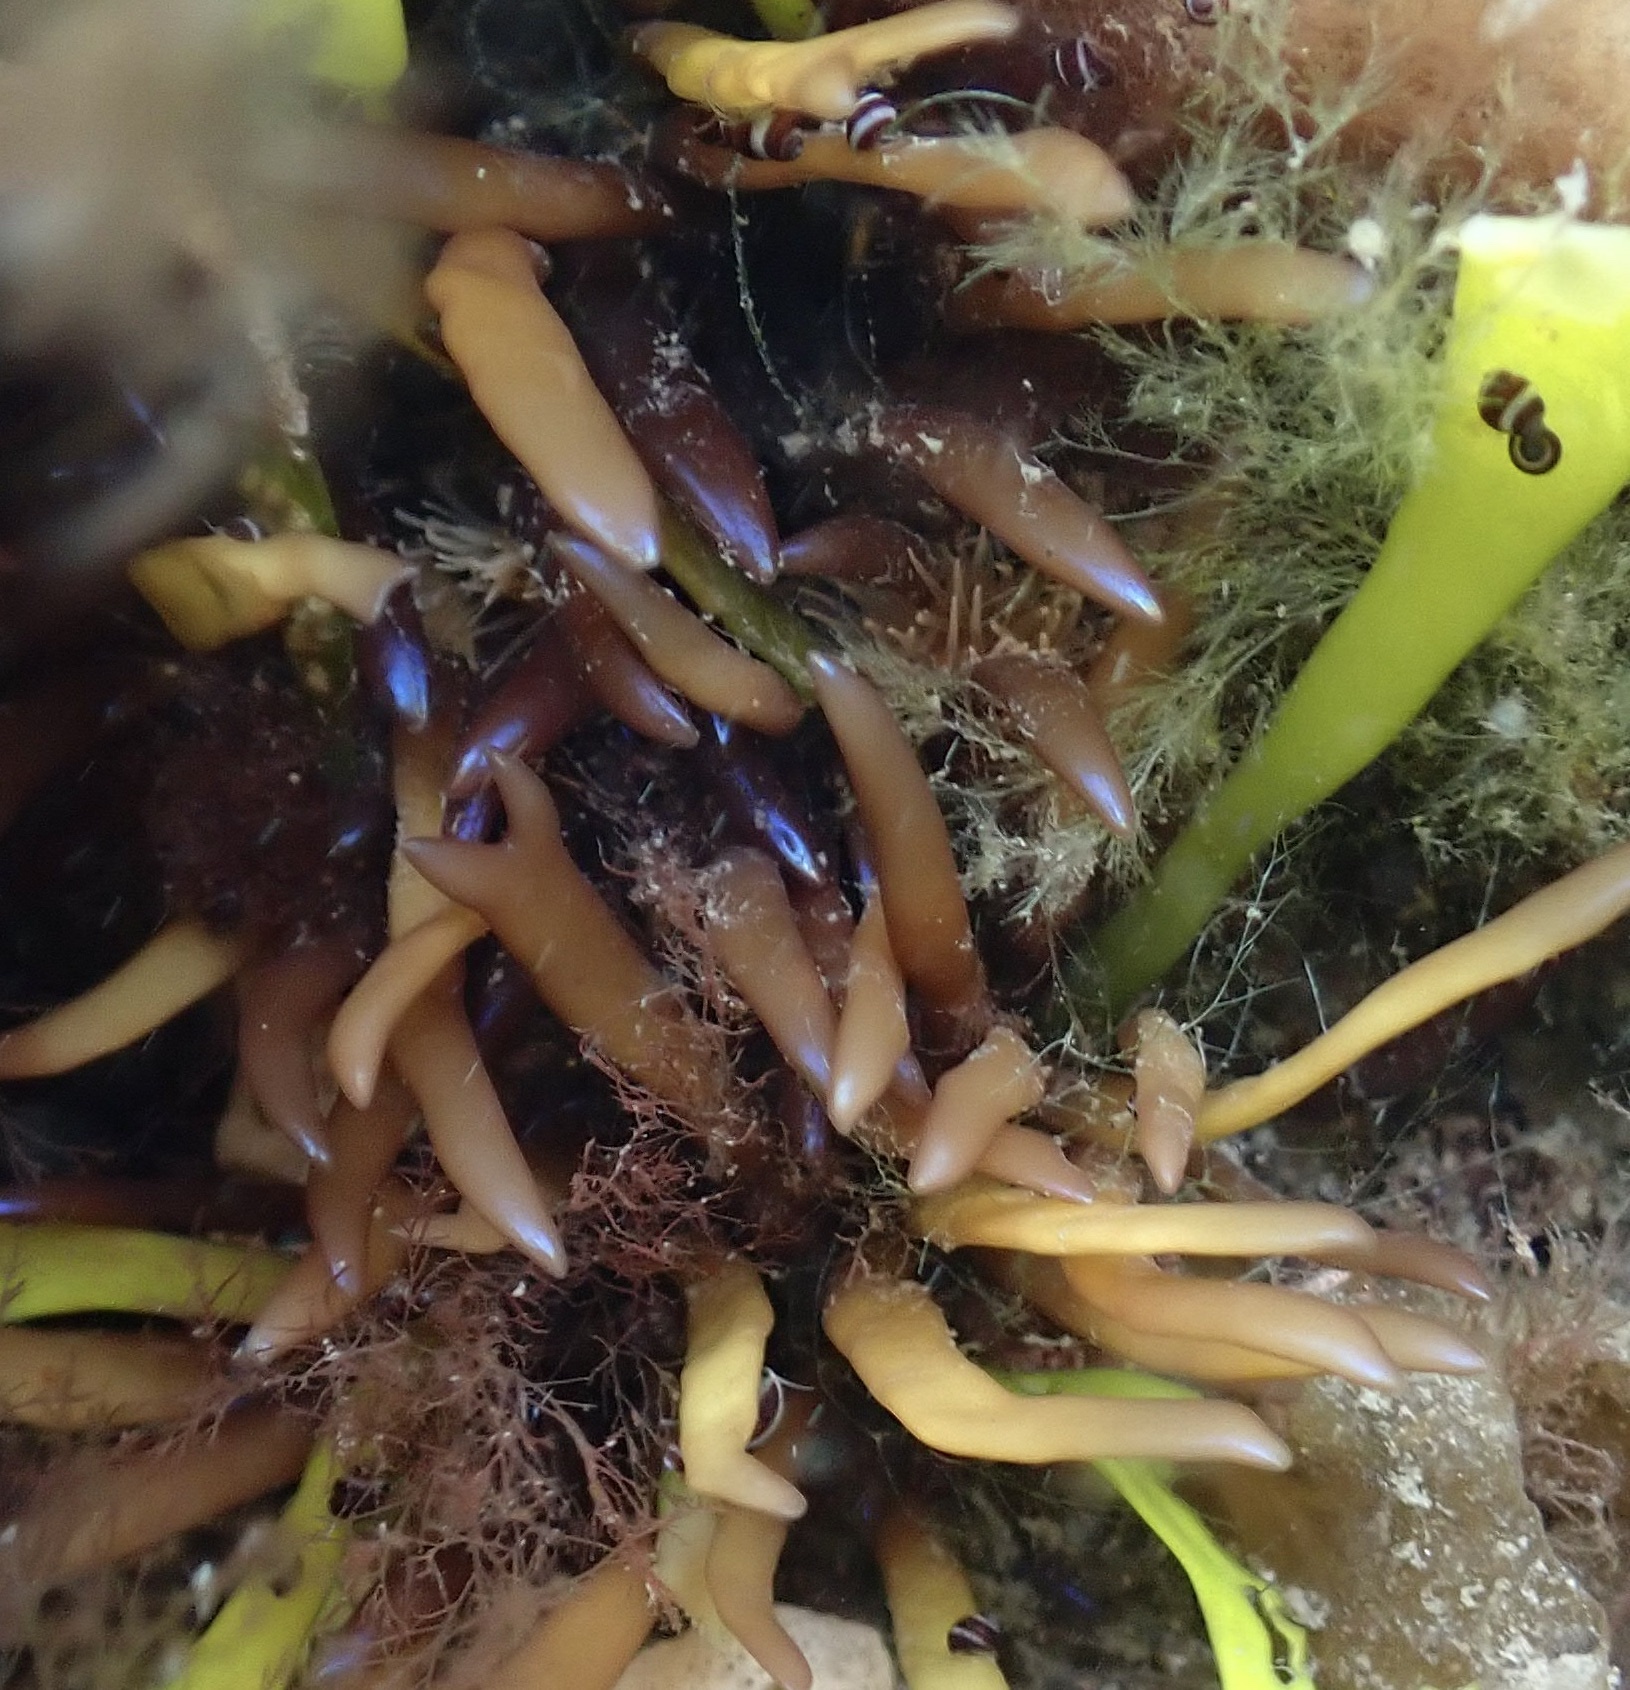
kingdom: Plantae
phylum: Rhodophyta
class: Florideophyceae
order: Gigartinales
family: Gigartinaceae
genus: Chondrus
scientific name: Chondrus crispus
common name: Carrageen
